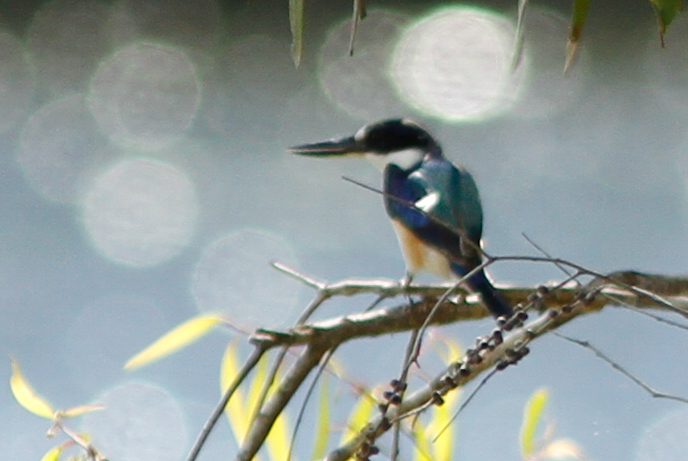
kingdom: Animalia
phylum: Chordata
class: Aves
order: Coraciiformes
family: Alcedinidae
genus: Todiramphus
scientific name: Todiramphus macleayii
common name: Forest kingfisher
